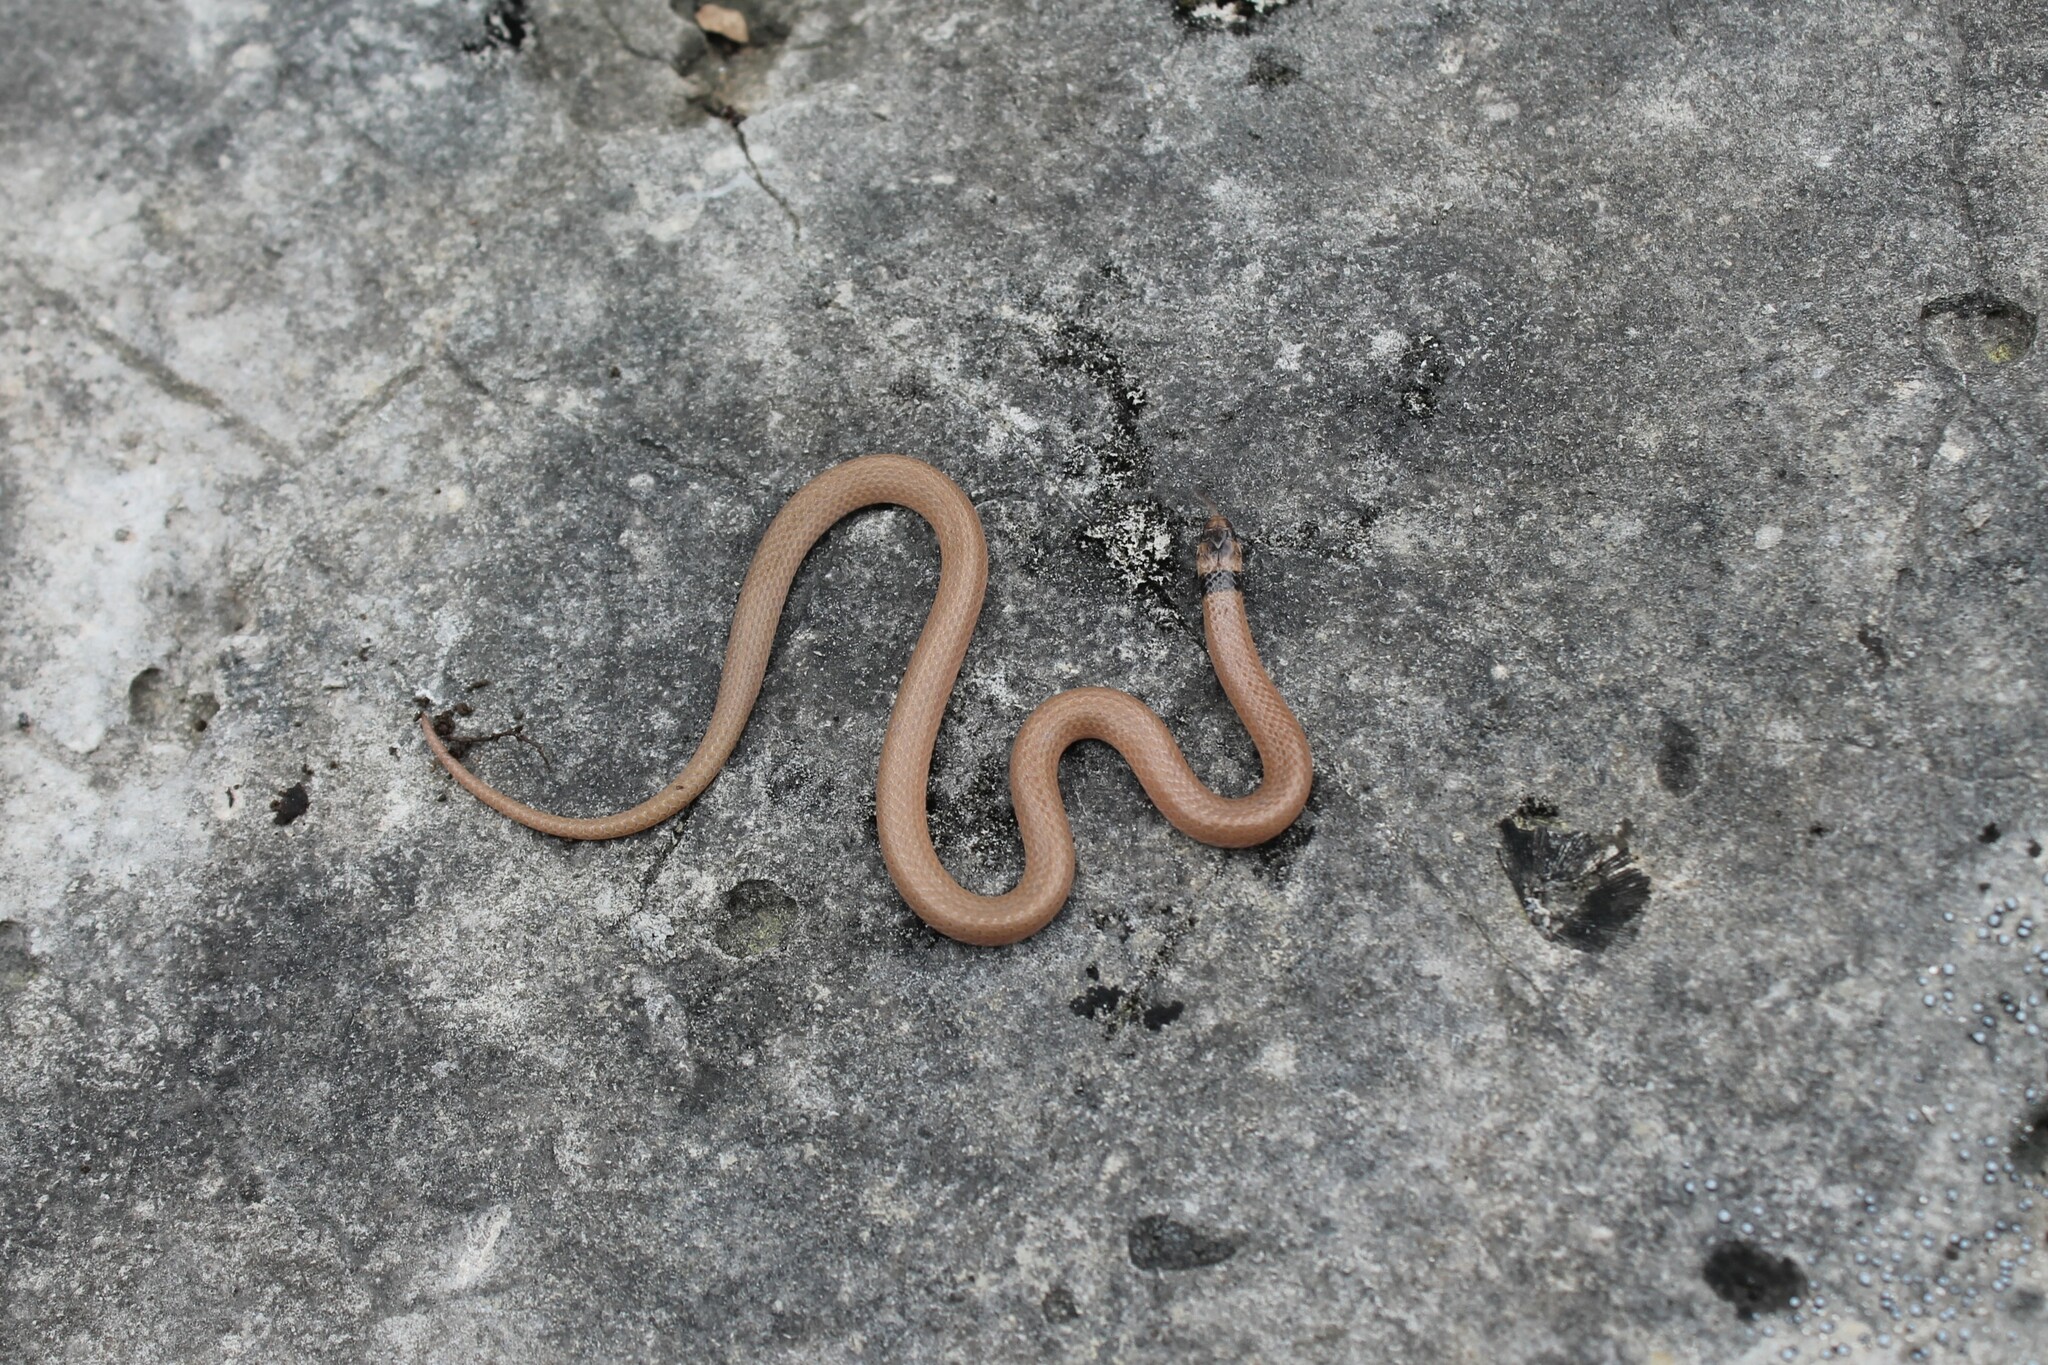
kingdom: Animalia
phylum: Chordata
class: Squamata
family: Colubridae
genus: Tantilla
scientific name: Tantilla coronata
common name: Southeastern crowned snake
